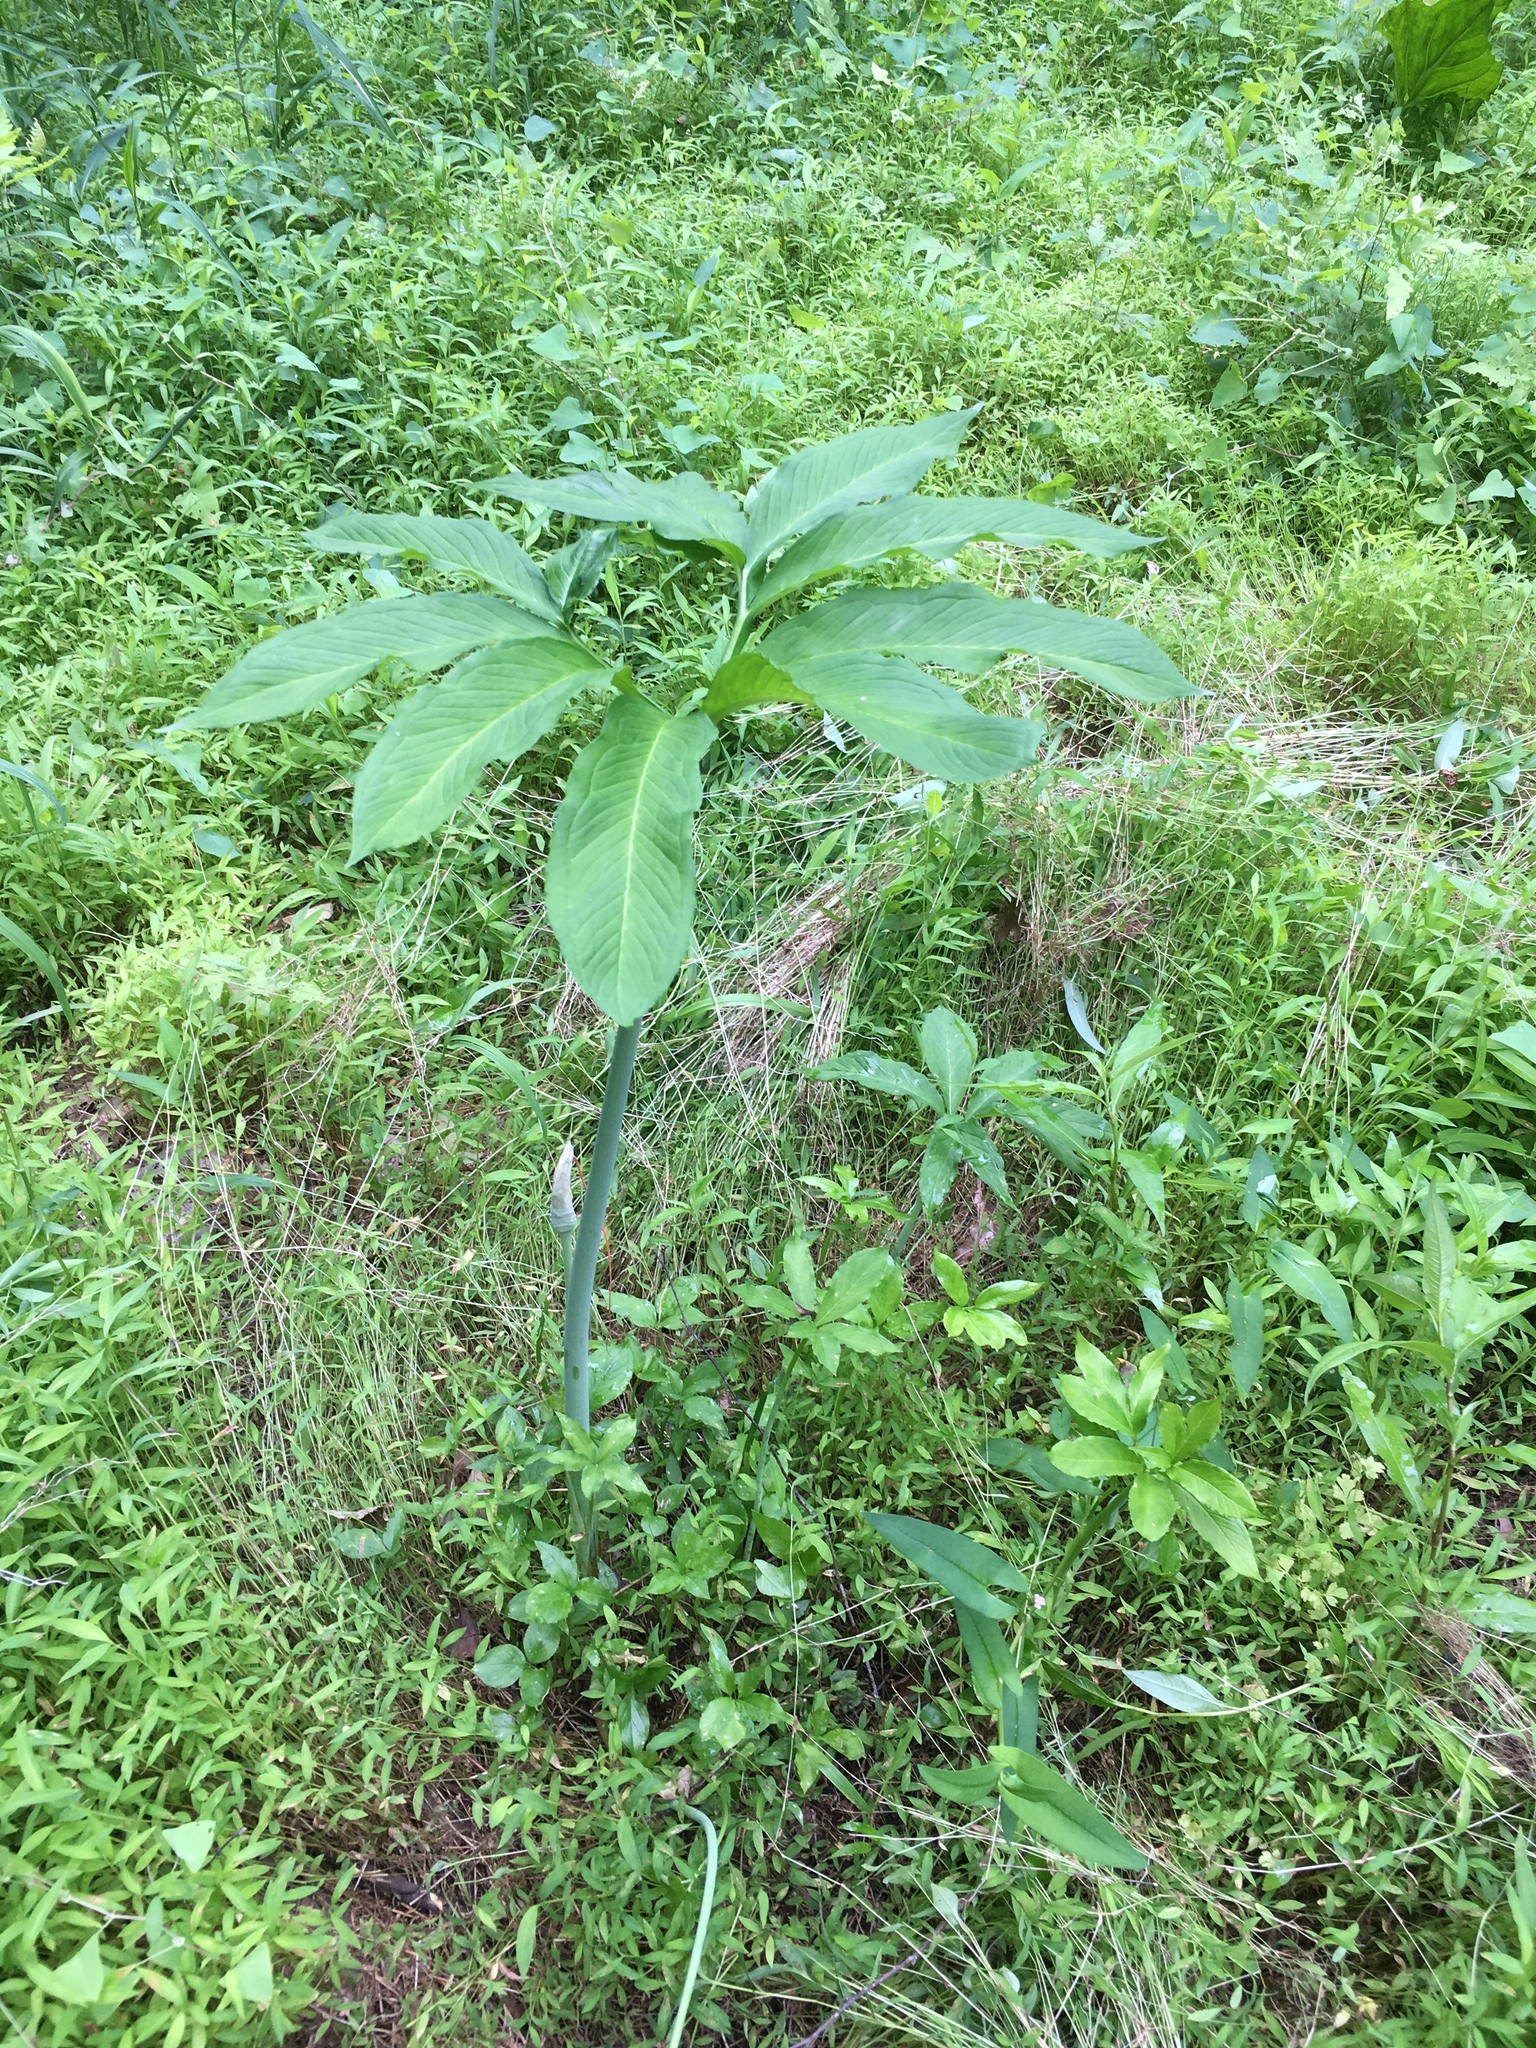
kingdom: Plantae
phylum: Tracheophyta
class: Liliopsida
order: Alismatales
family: Araceae
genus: Arisaema
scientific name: Arisaema dracontium
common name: Dragon-arum
